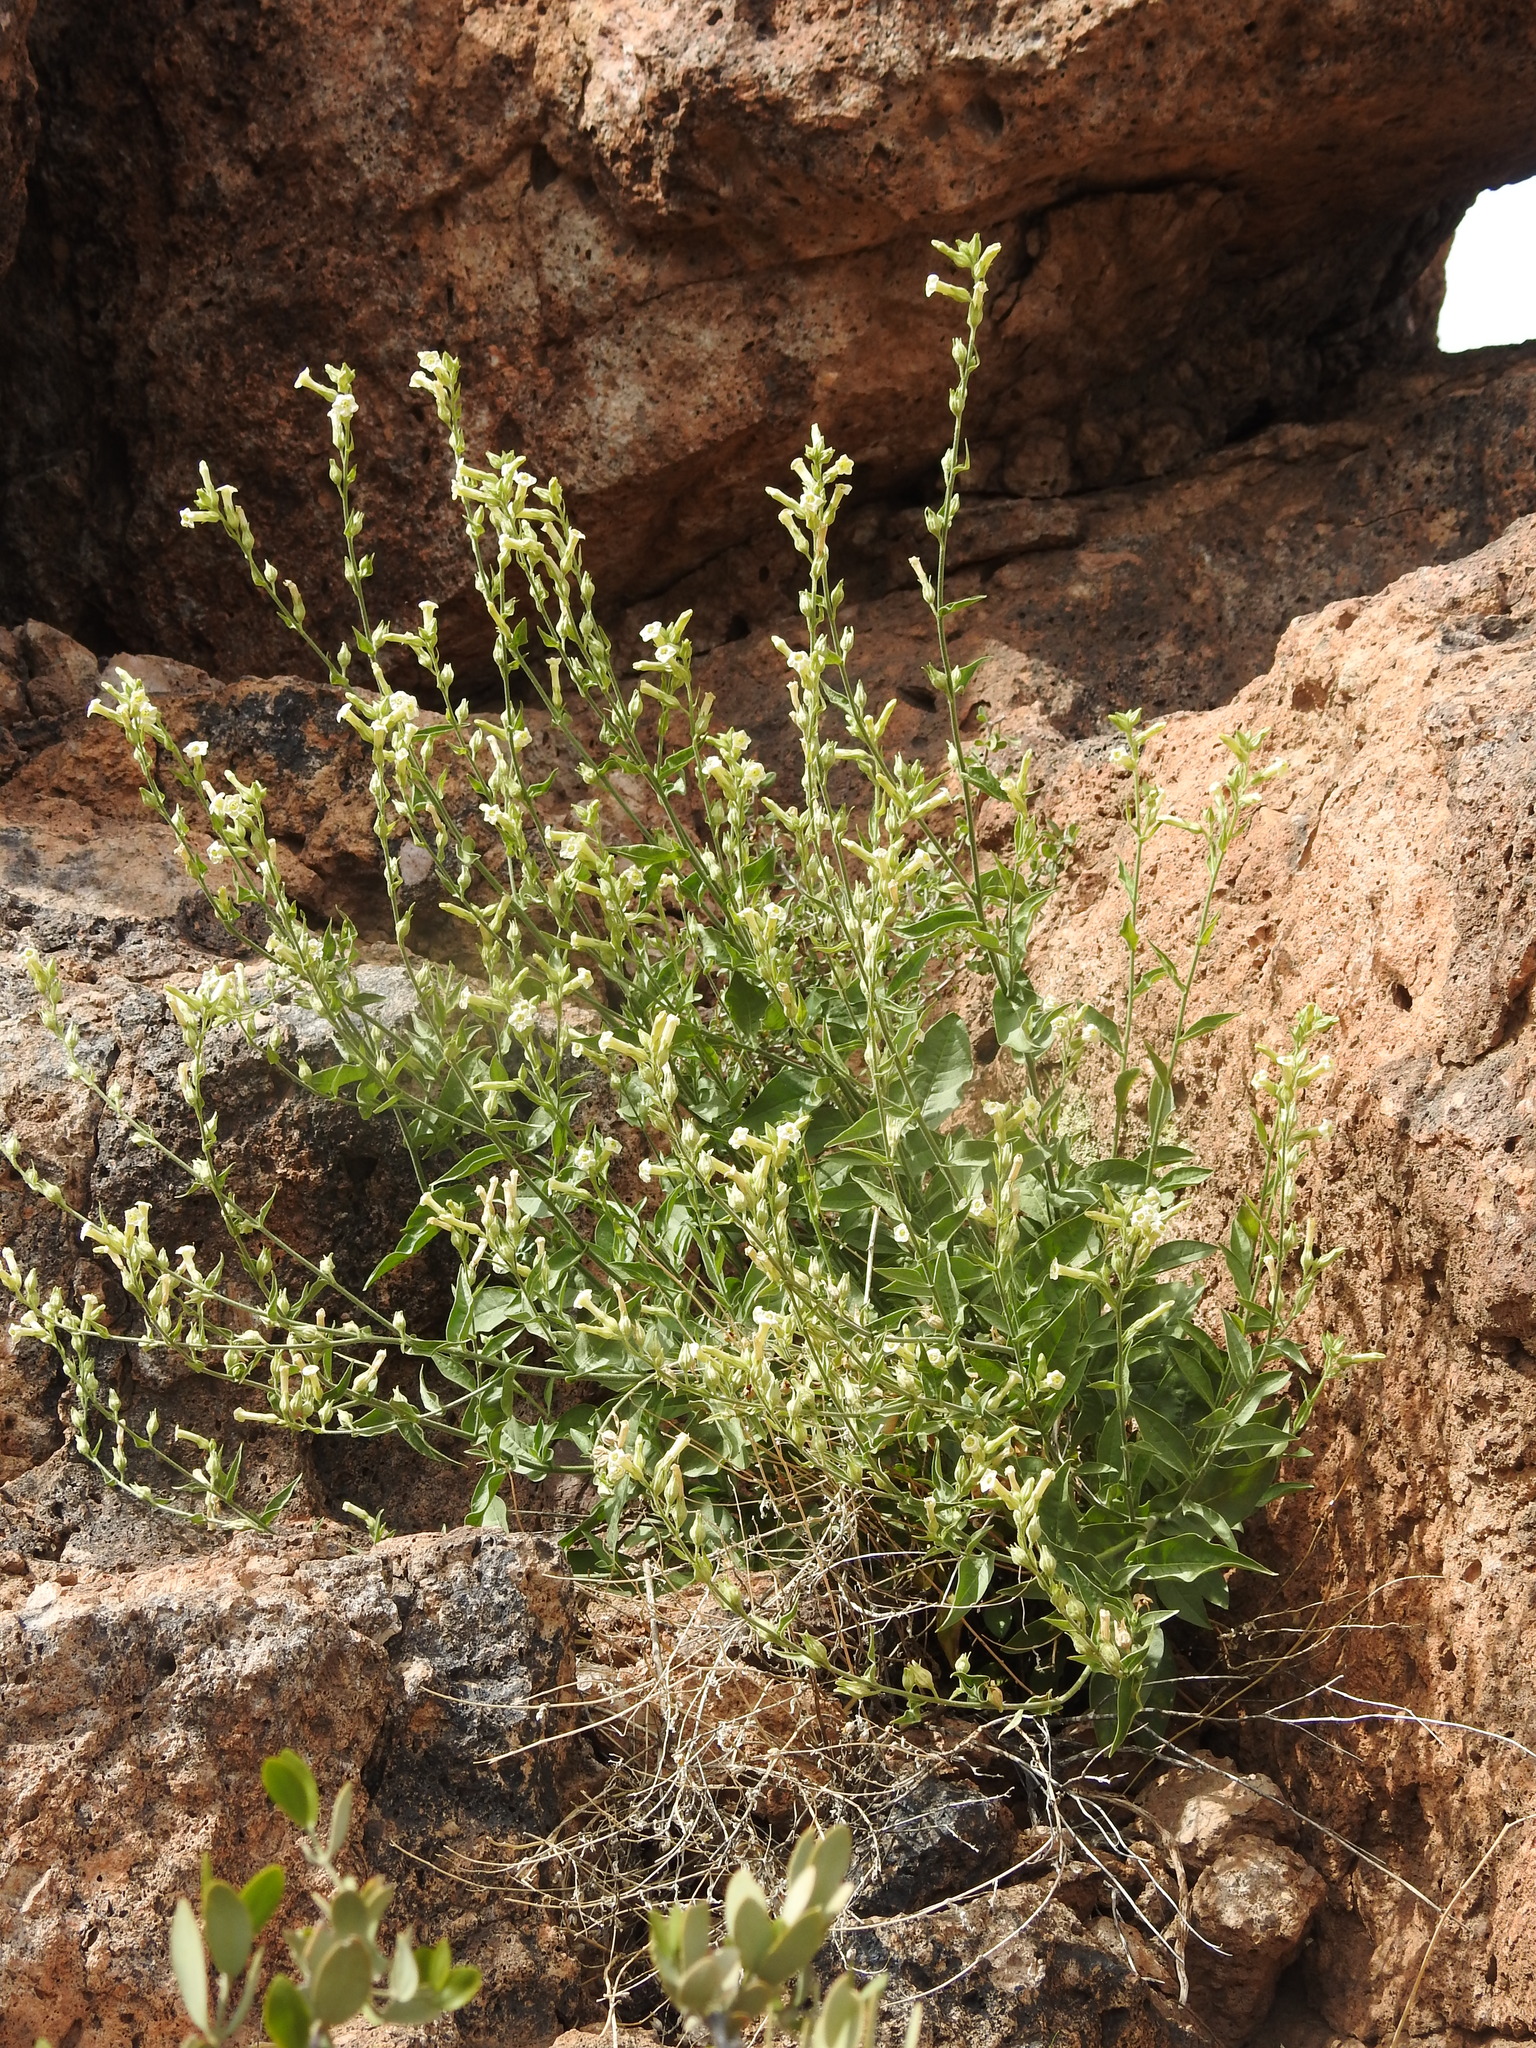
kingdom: Plantae
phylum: Tracheophyta
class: Magnoliopsida
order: Solanales
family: Solanaceae
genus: Nicotiana
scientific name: Nicotiana obtusifolia
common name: Desert tobacco
